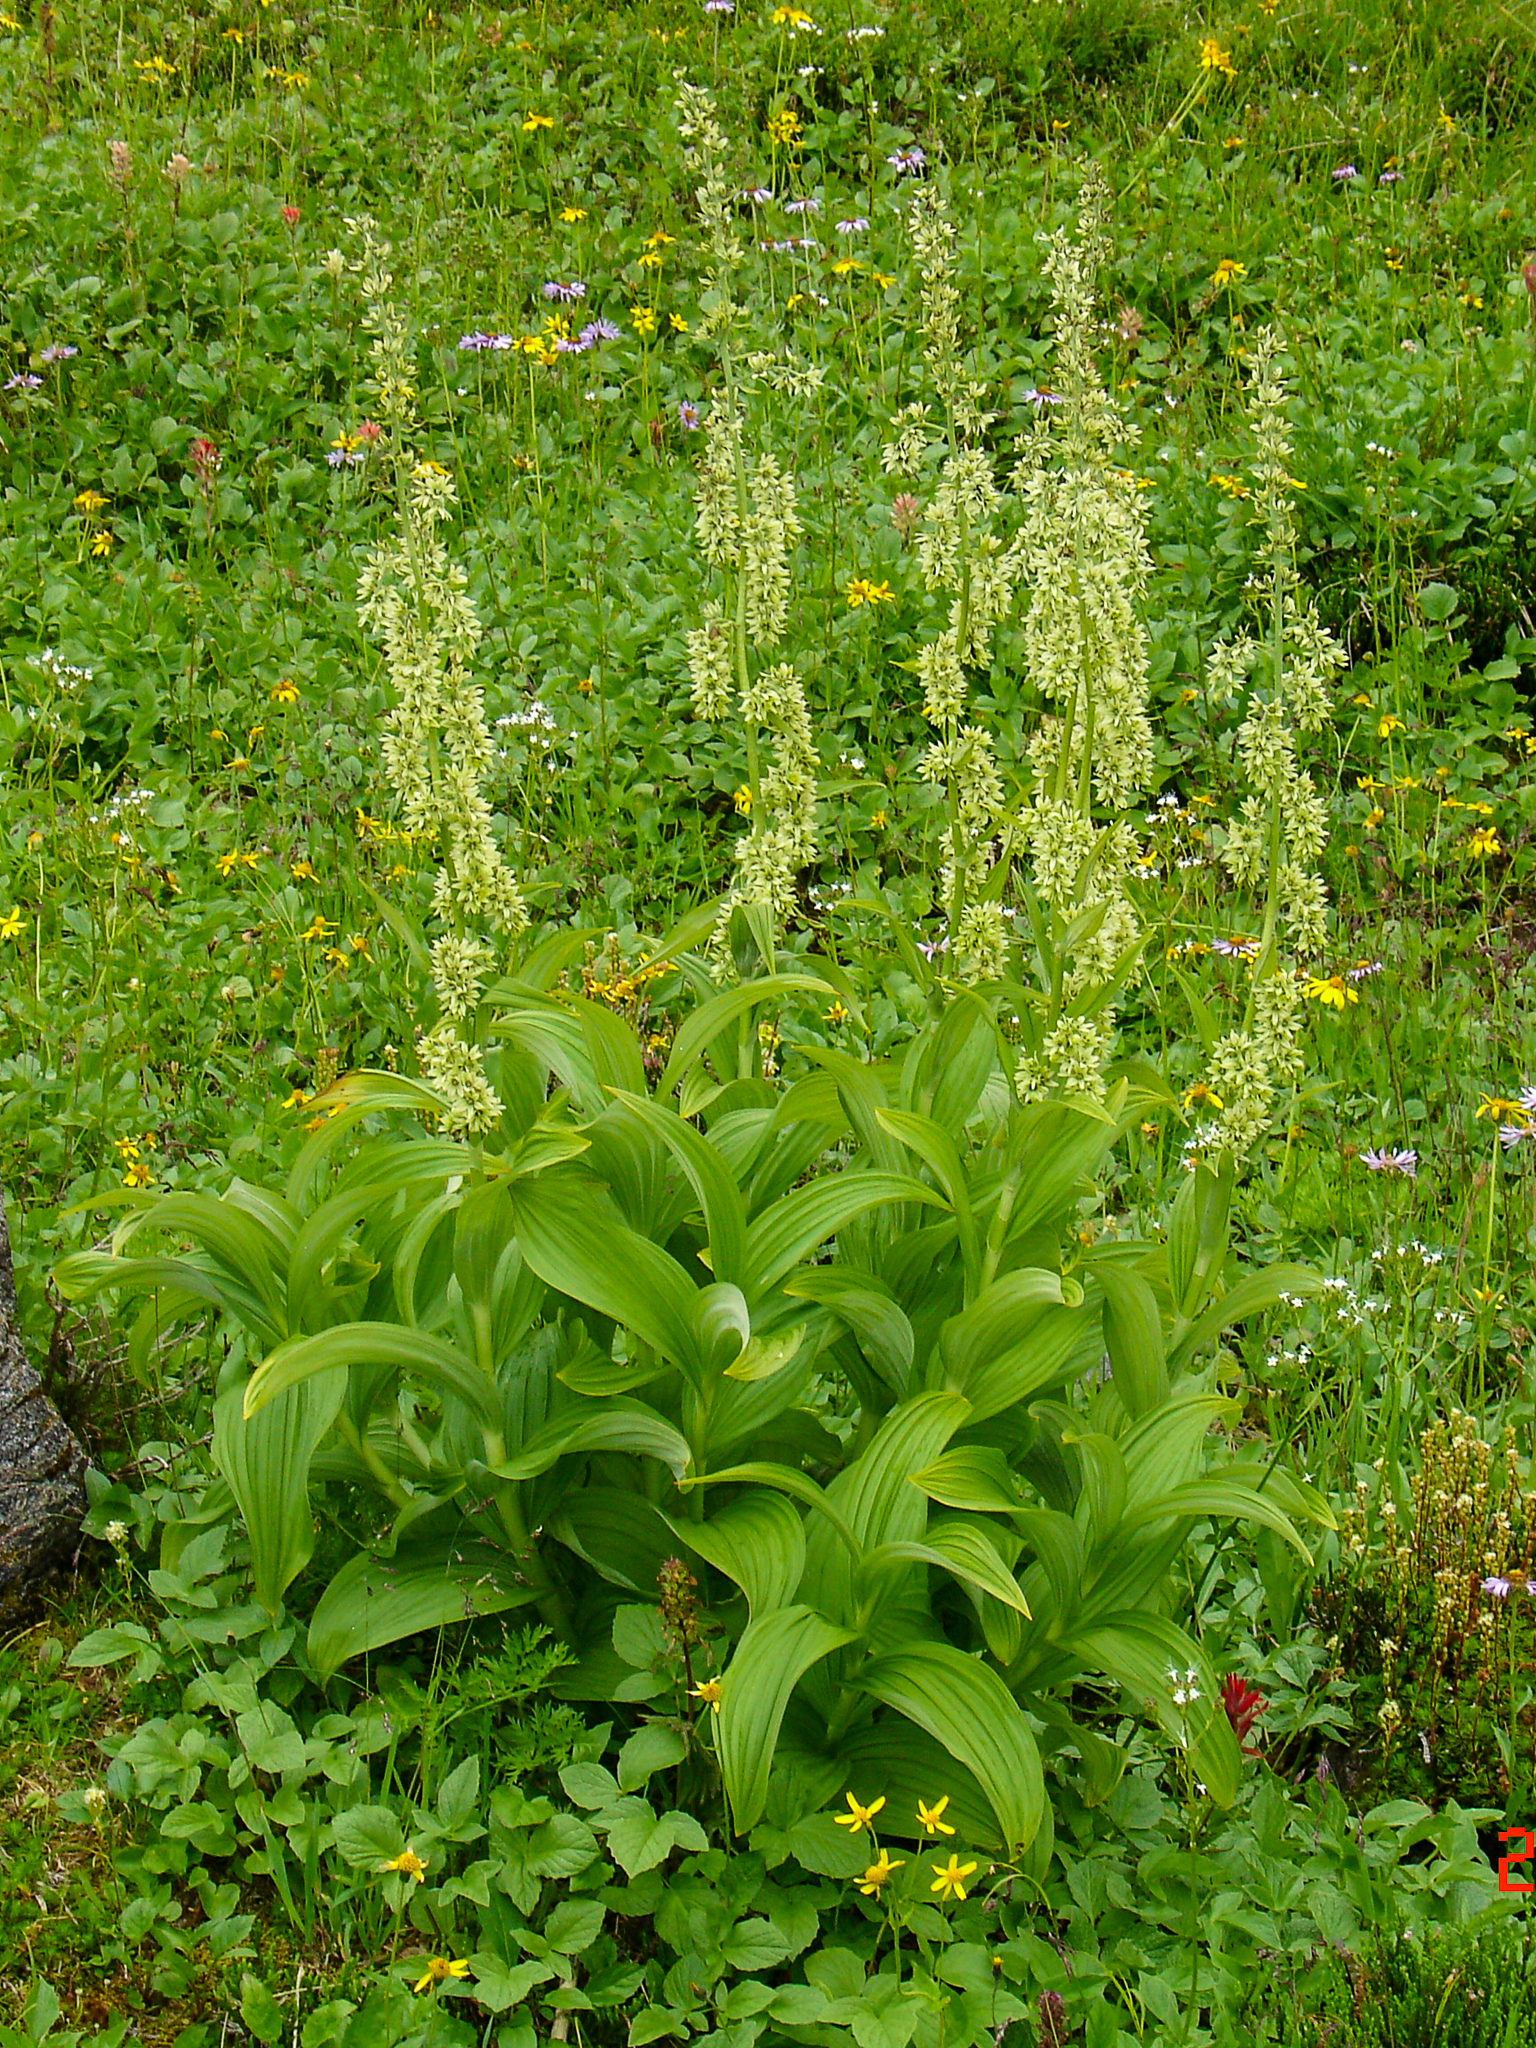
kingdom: Plantae
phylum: Tracheophyta
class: Liliopsida
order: Liliales
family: Melanthiaceae
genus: Veratrum
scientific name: Veratrum viride
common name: American false hellebore
